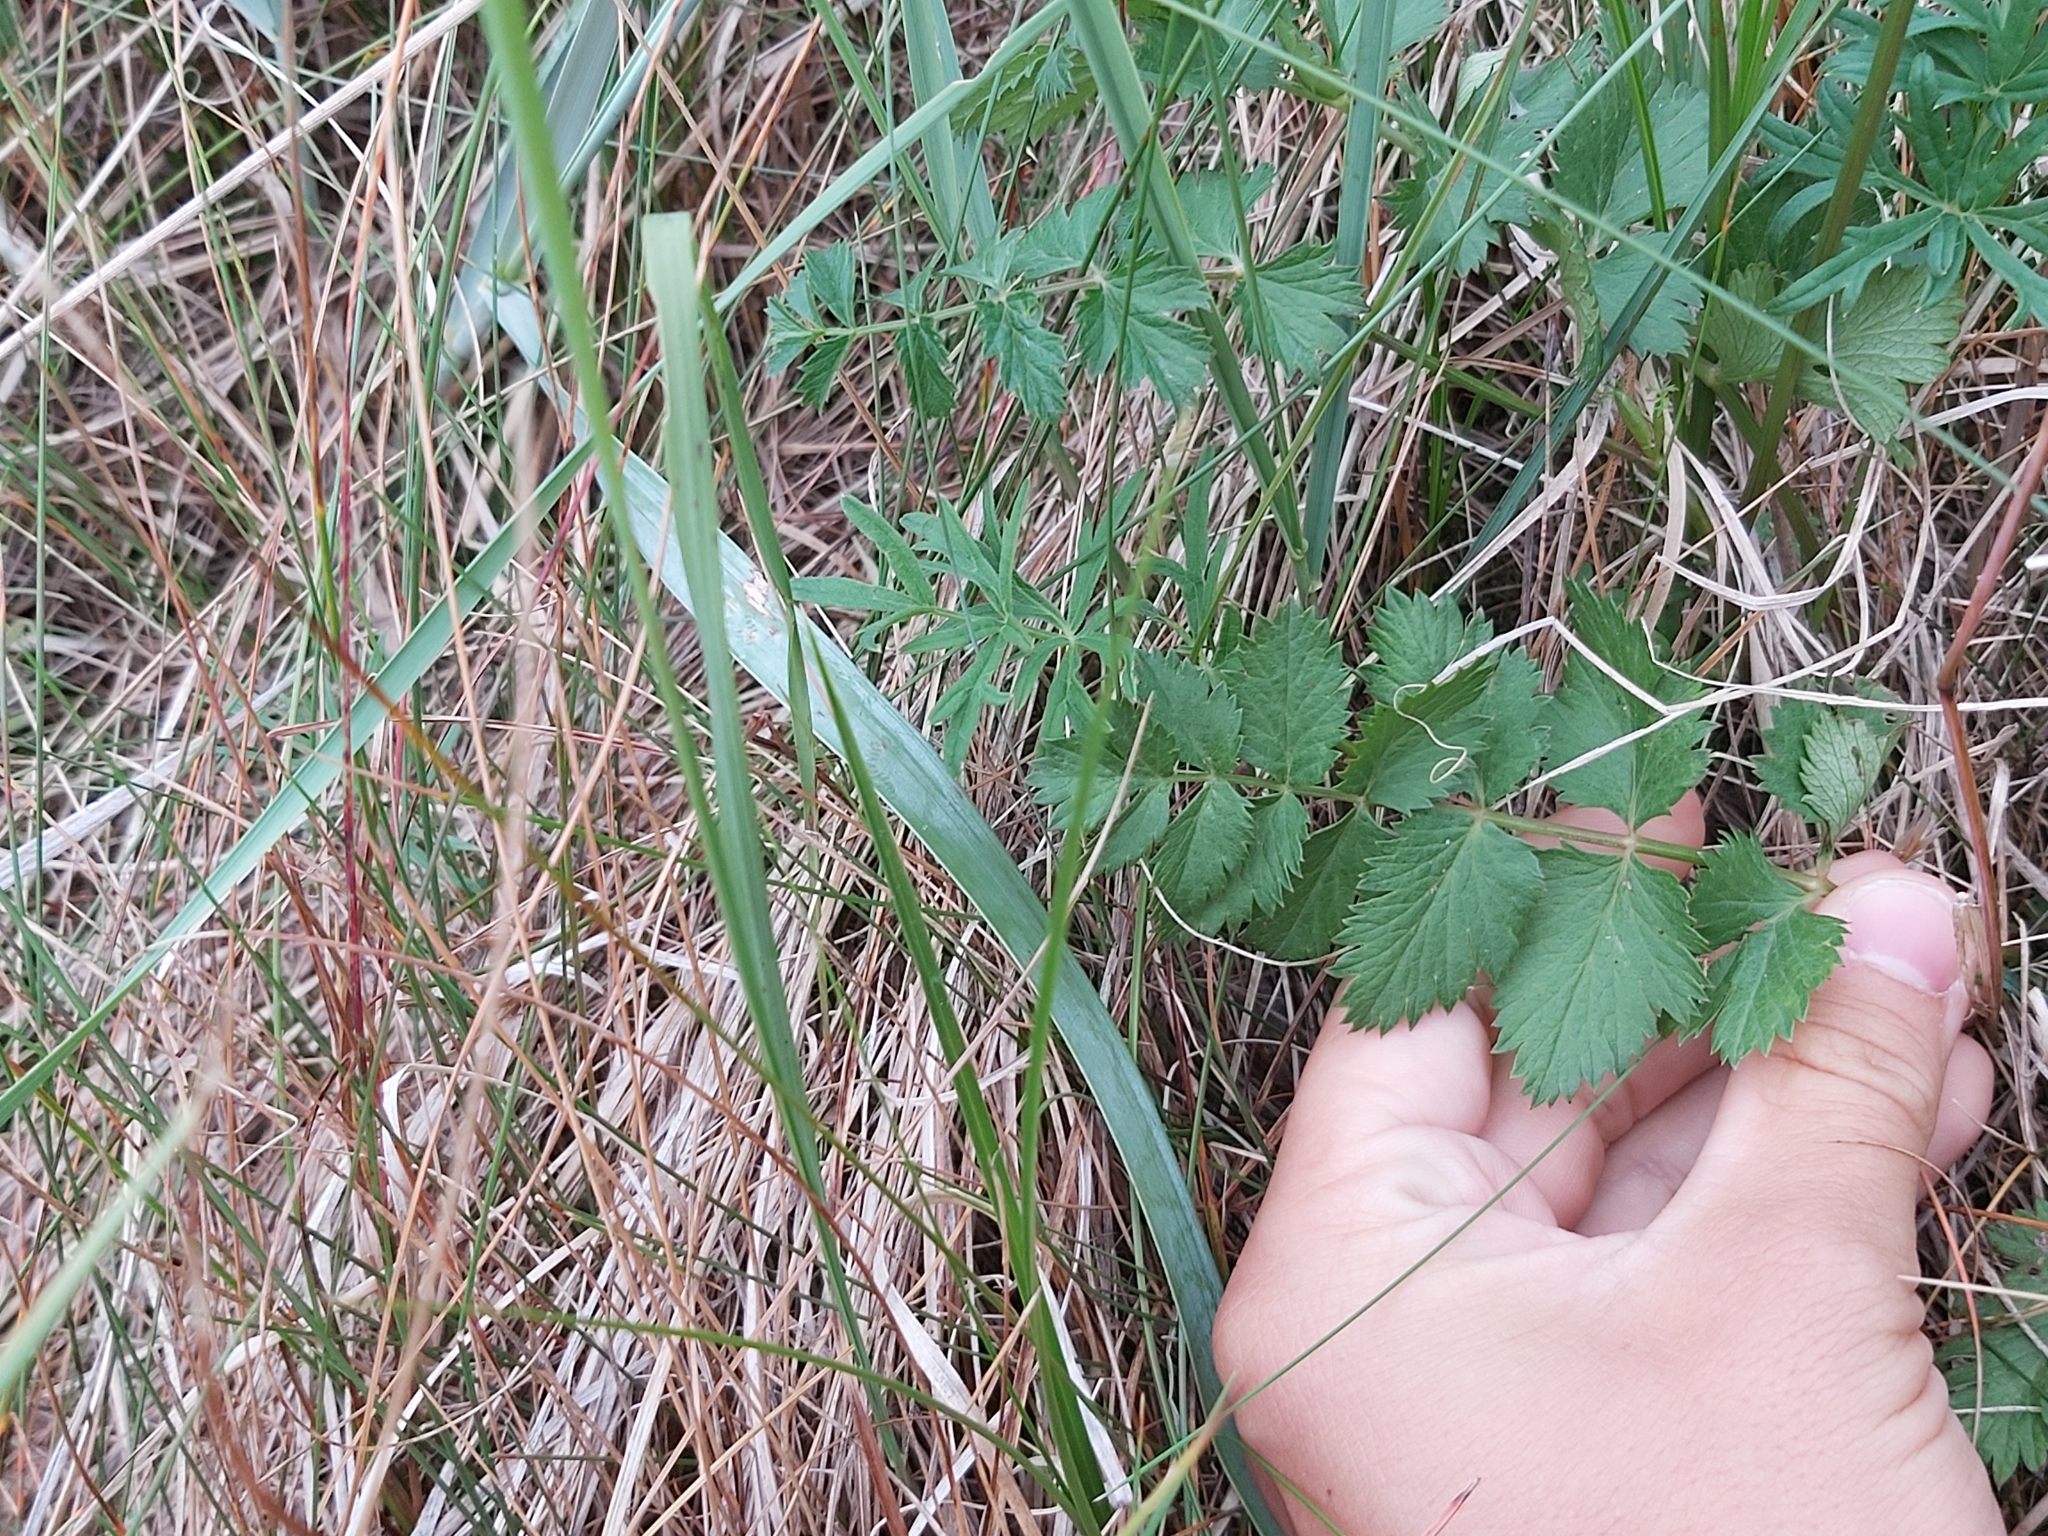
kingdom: Plantae
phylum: Tracheophyta
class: Magnoliopsida
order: Apiales
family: Apiaceae
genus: Pimpinella
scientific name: Pimpinella saxifraga
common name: Burnet-saxifrage
